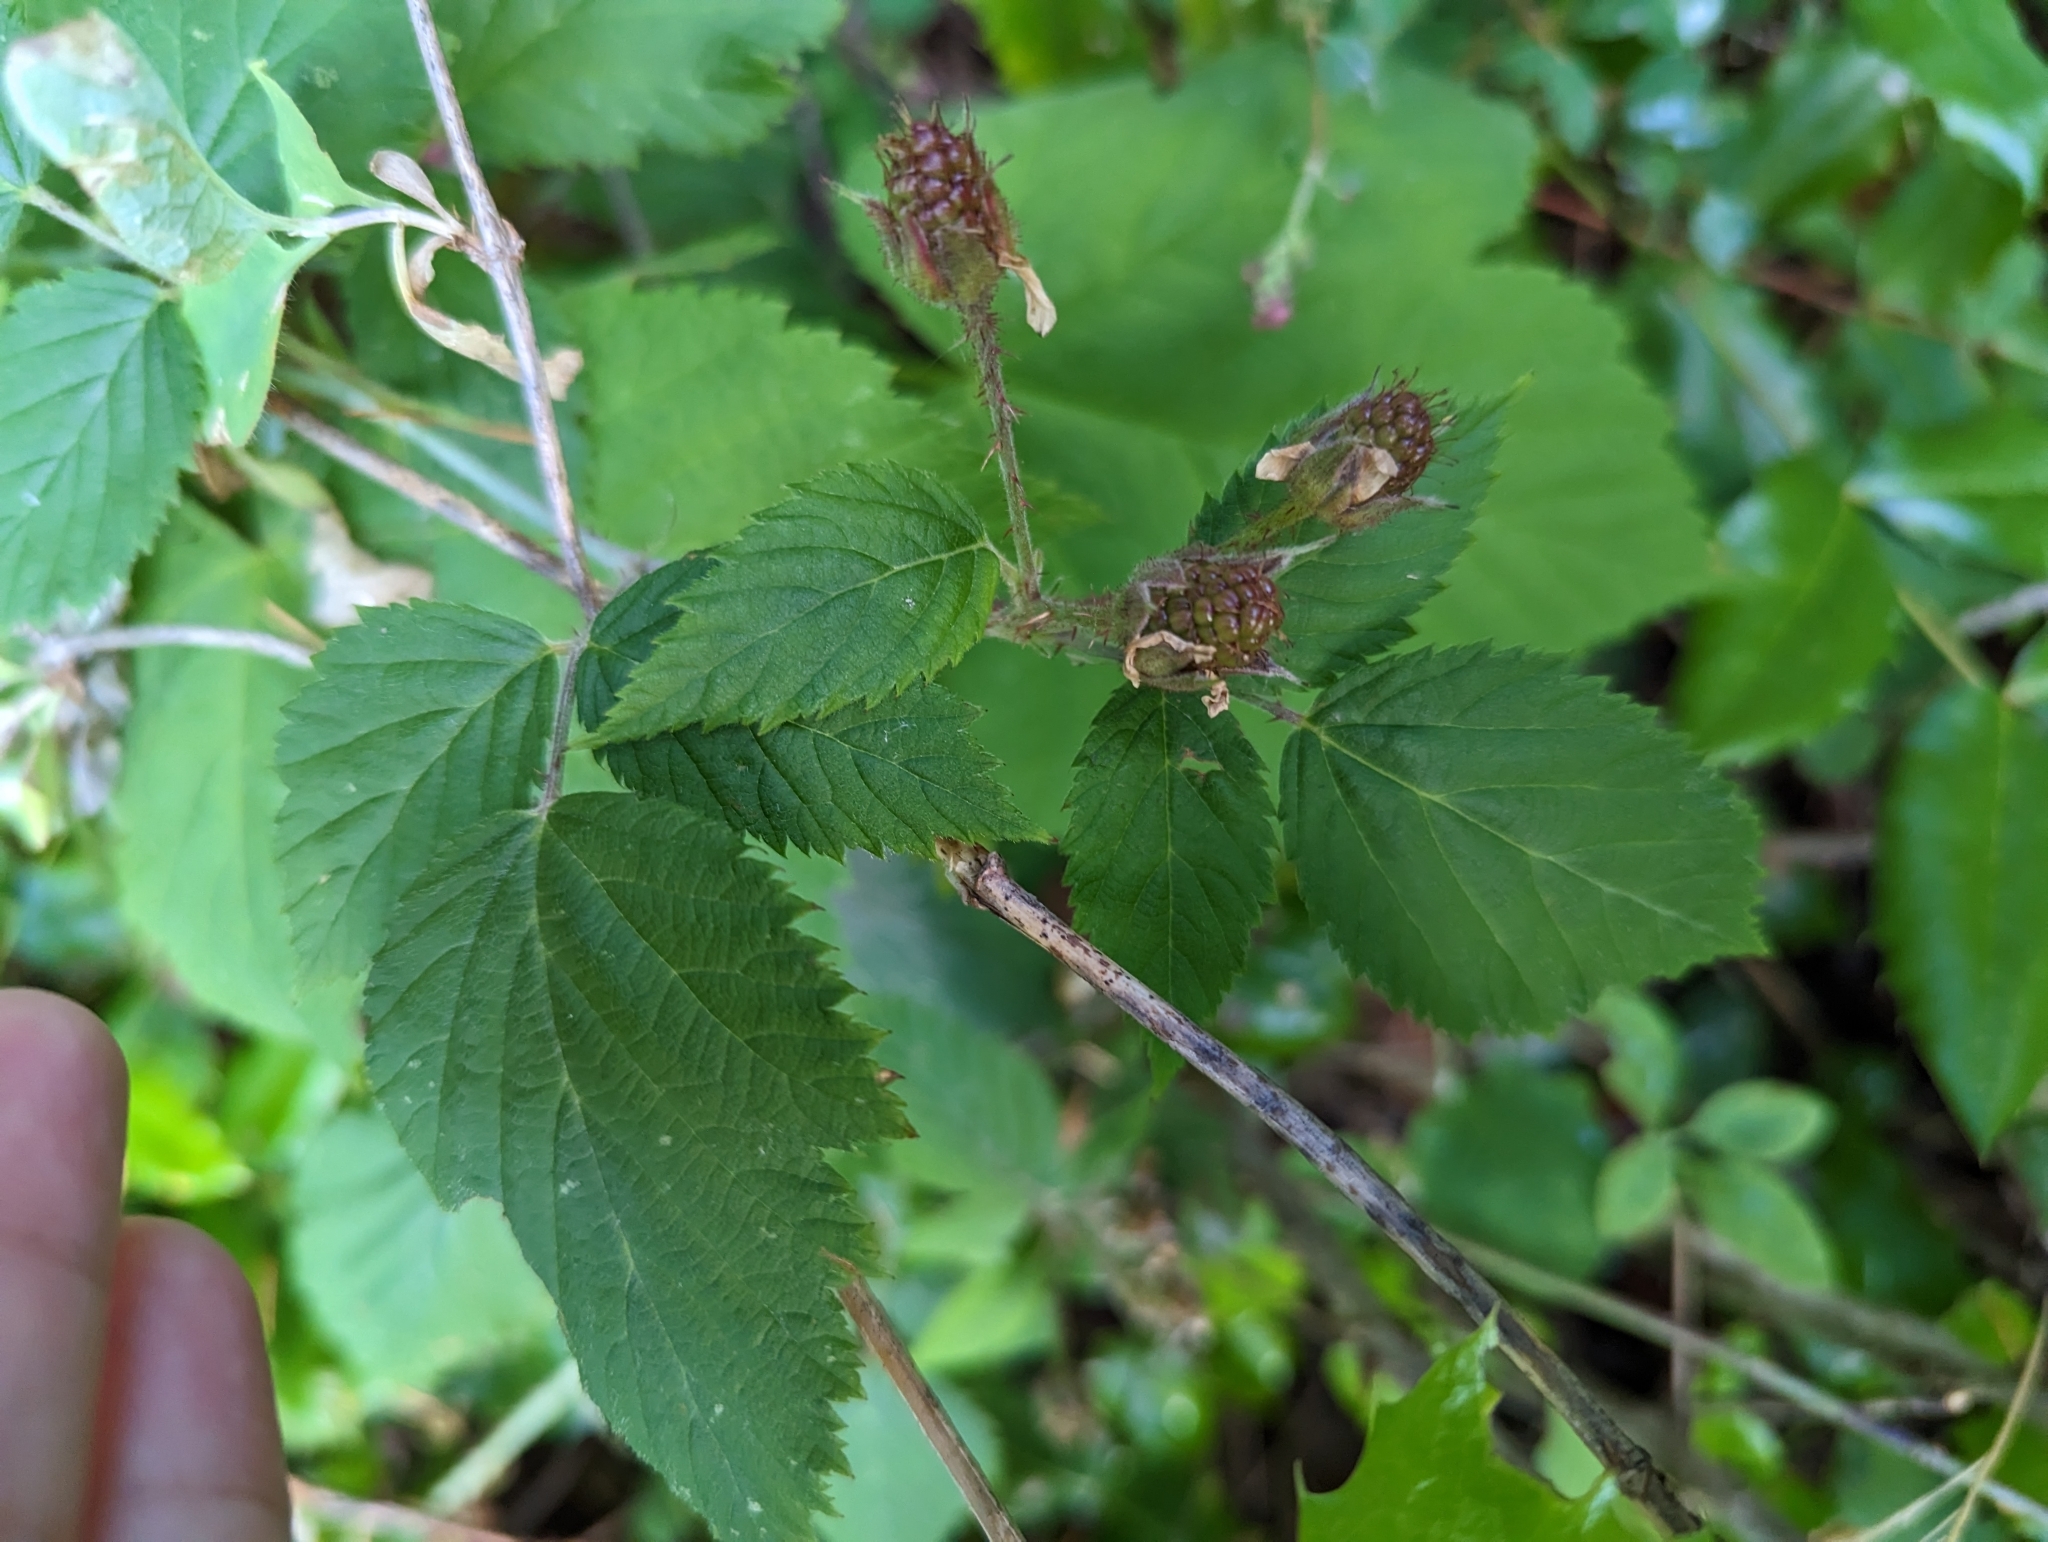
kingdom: Plantae
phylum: Tracheophyta
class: Magnoliopsida
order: Rosales
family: Rosaceae
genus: Rubus
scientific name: Rubus ursinus
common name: Pacific blackberry
